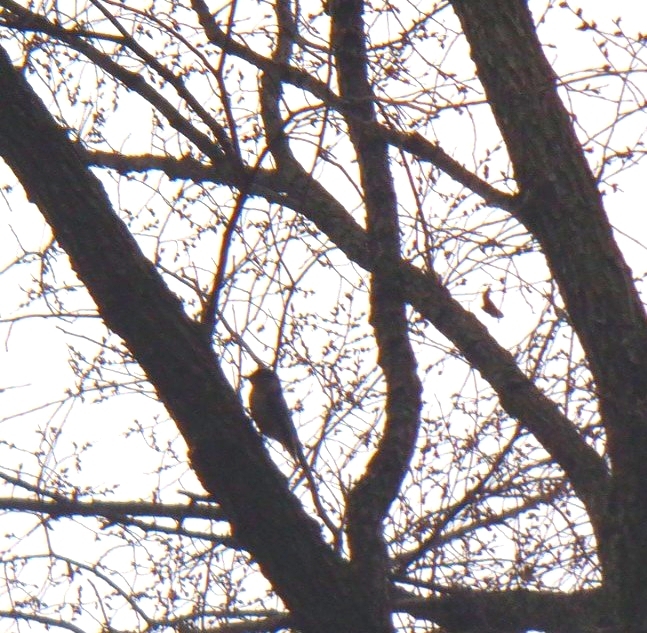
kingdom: Animalia
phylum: Chordata
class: Aves
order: Passeriformes
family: Sittidae
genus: Sitta
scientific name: Sitta carolinensis
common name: White-breasted nuthatch
